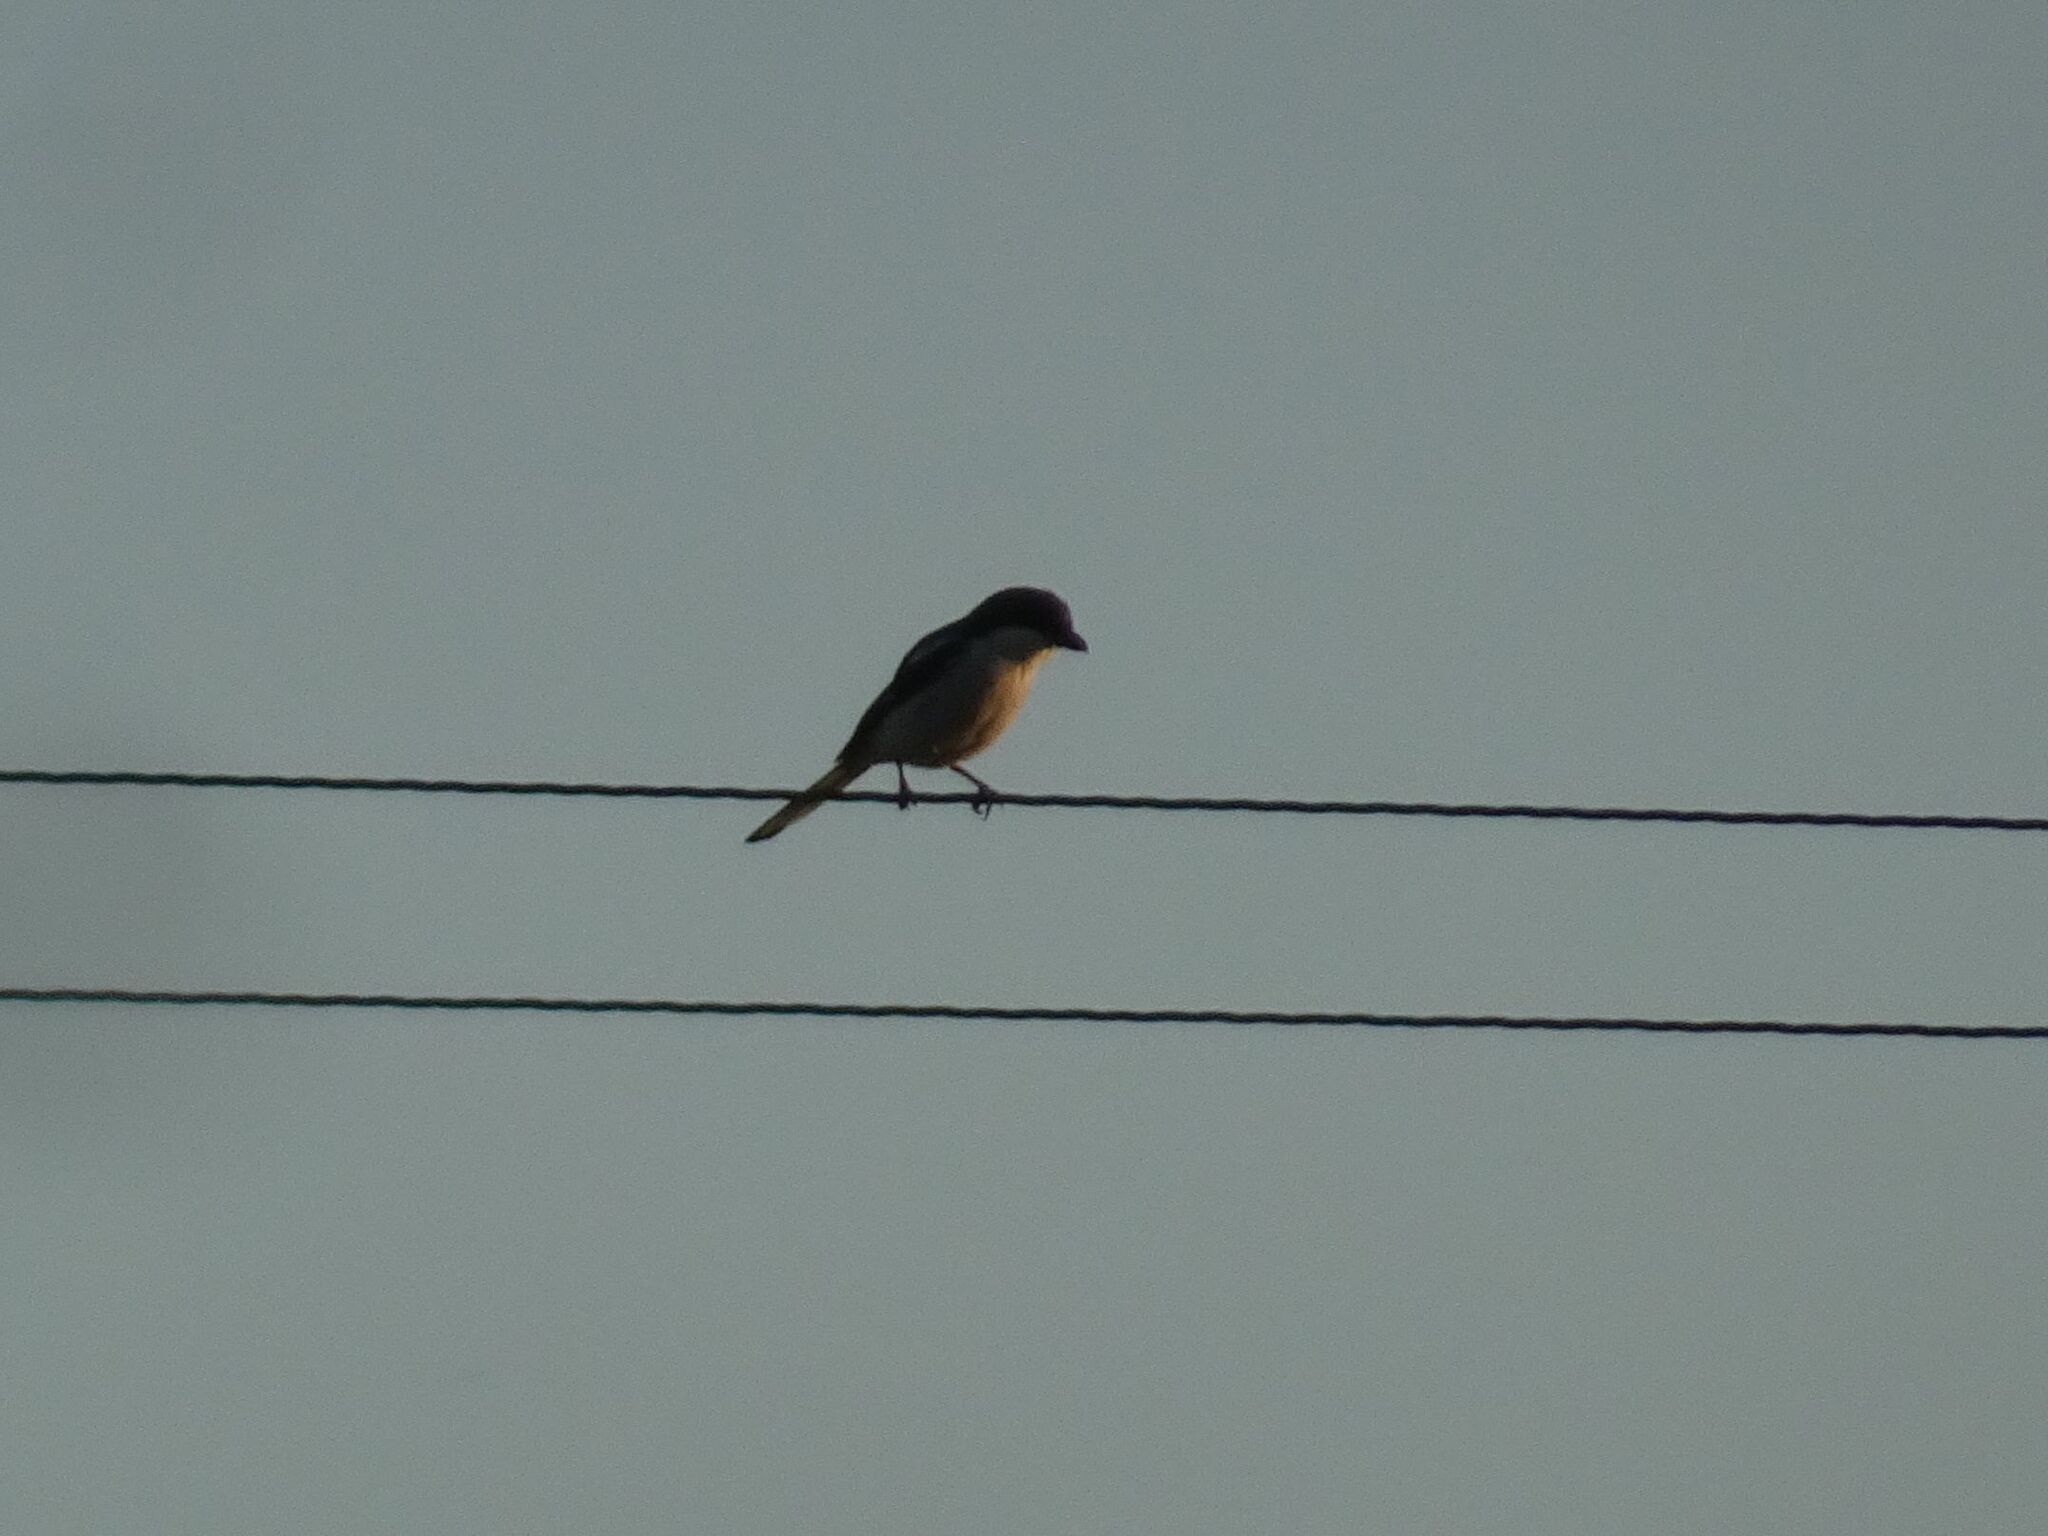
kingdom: Animalia
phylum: Chordata
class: Aves
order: Passeriformes
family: Laniidae
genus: Lanius
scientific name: Lanius collaris
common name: Southern fiscal
